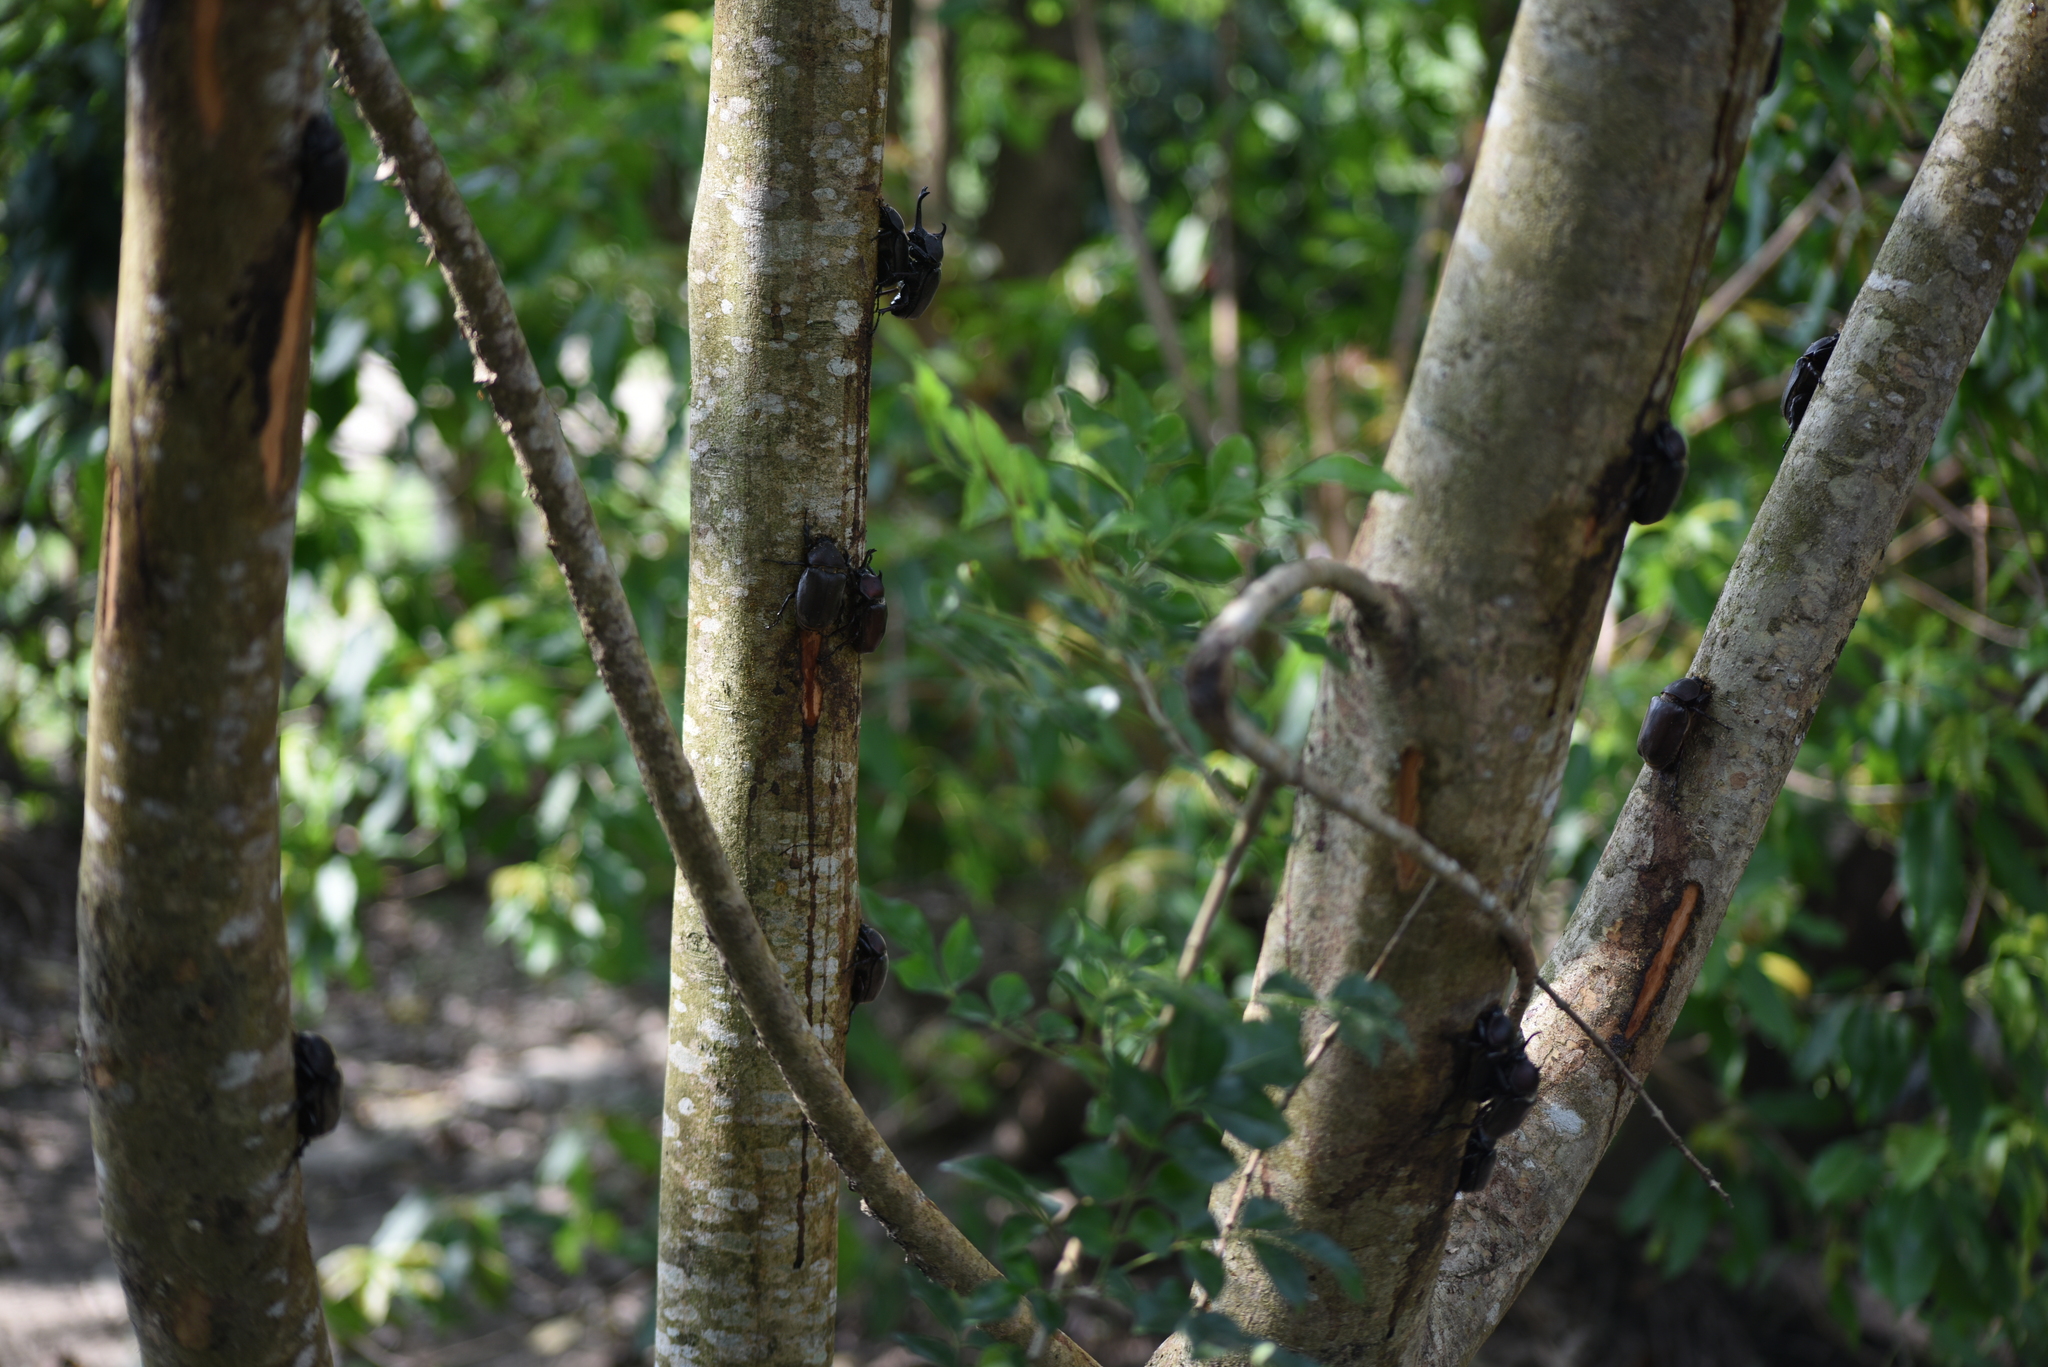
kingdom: Animalia
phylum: Arthropoda
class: Insecta
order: Coleoptera
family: Scarabaeidae
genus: Trypoxylus
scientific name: Trypoxylus dichotomus
